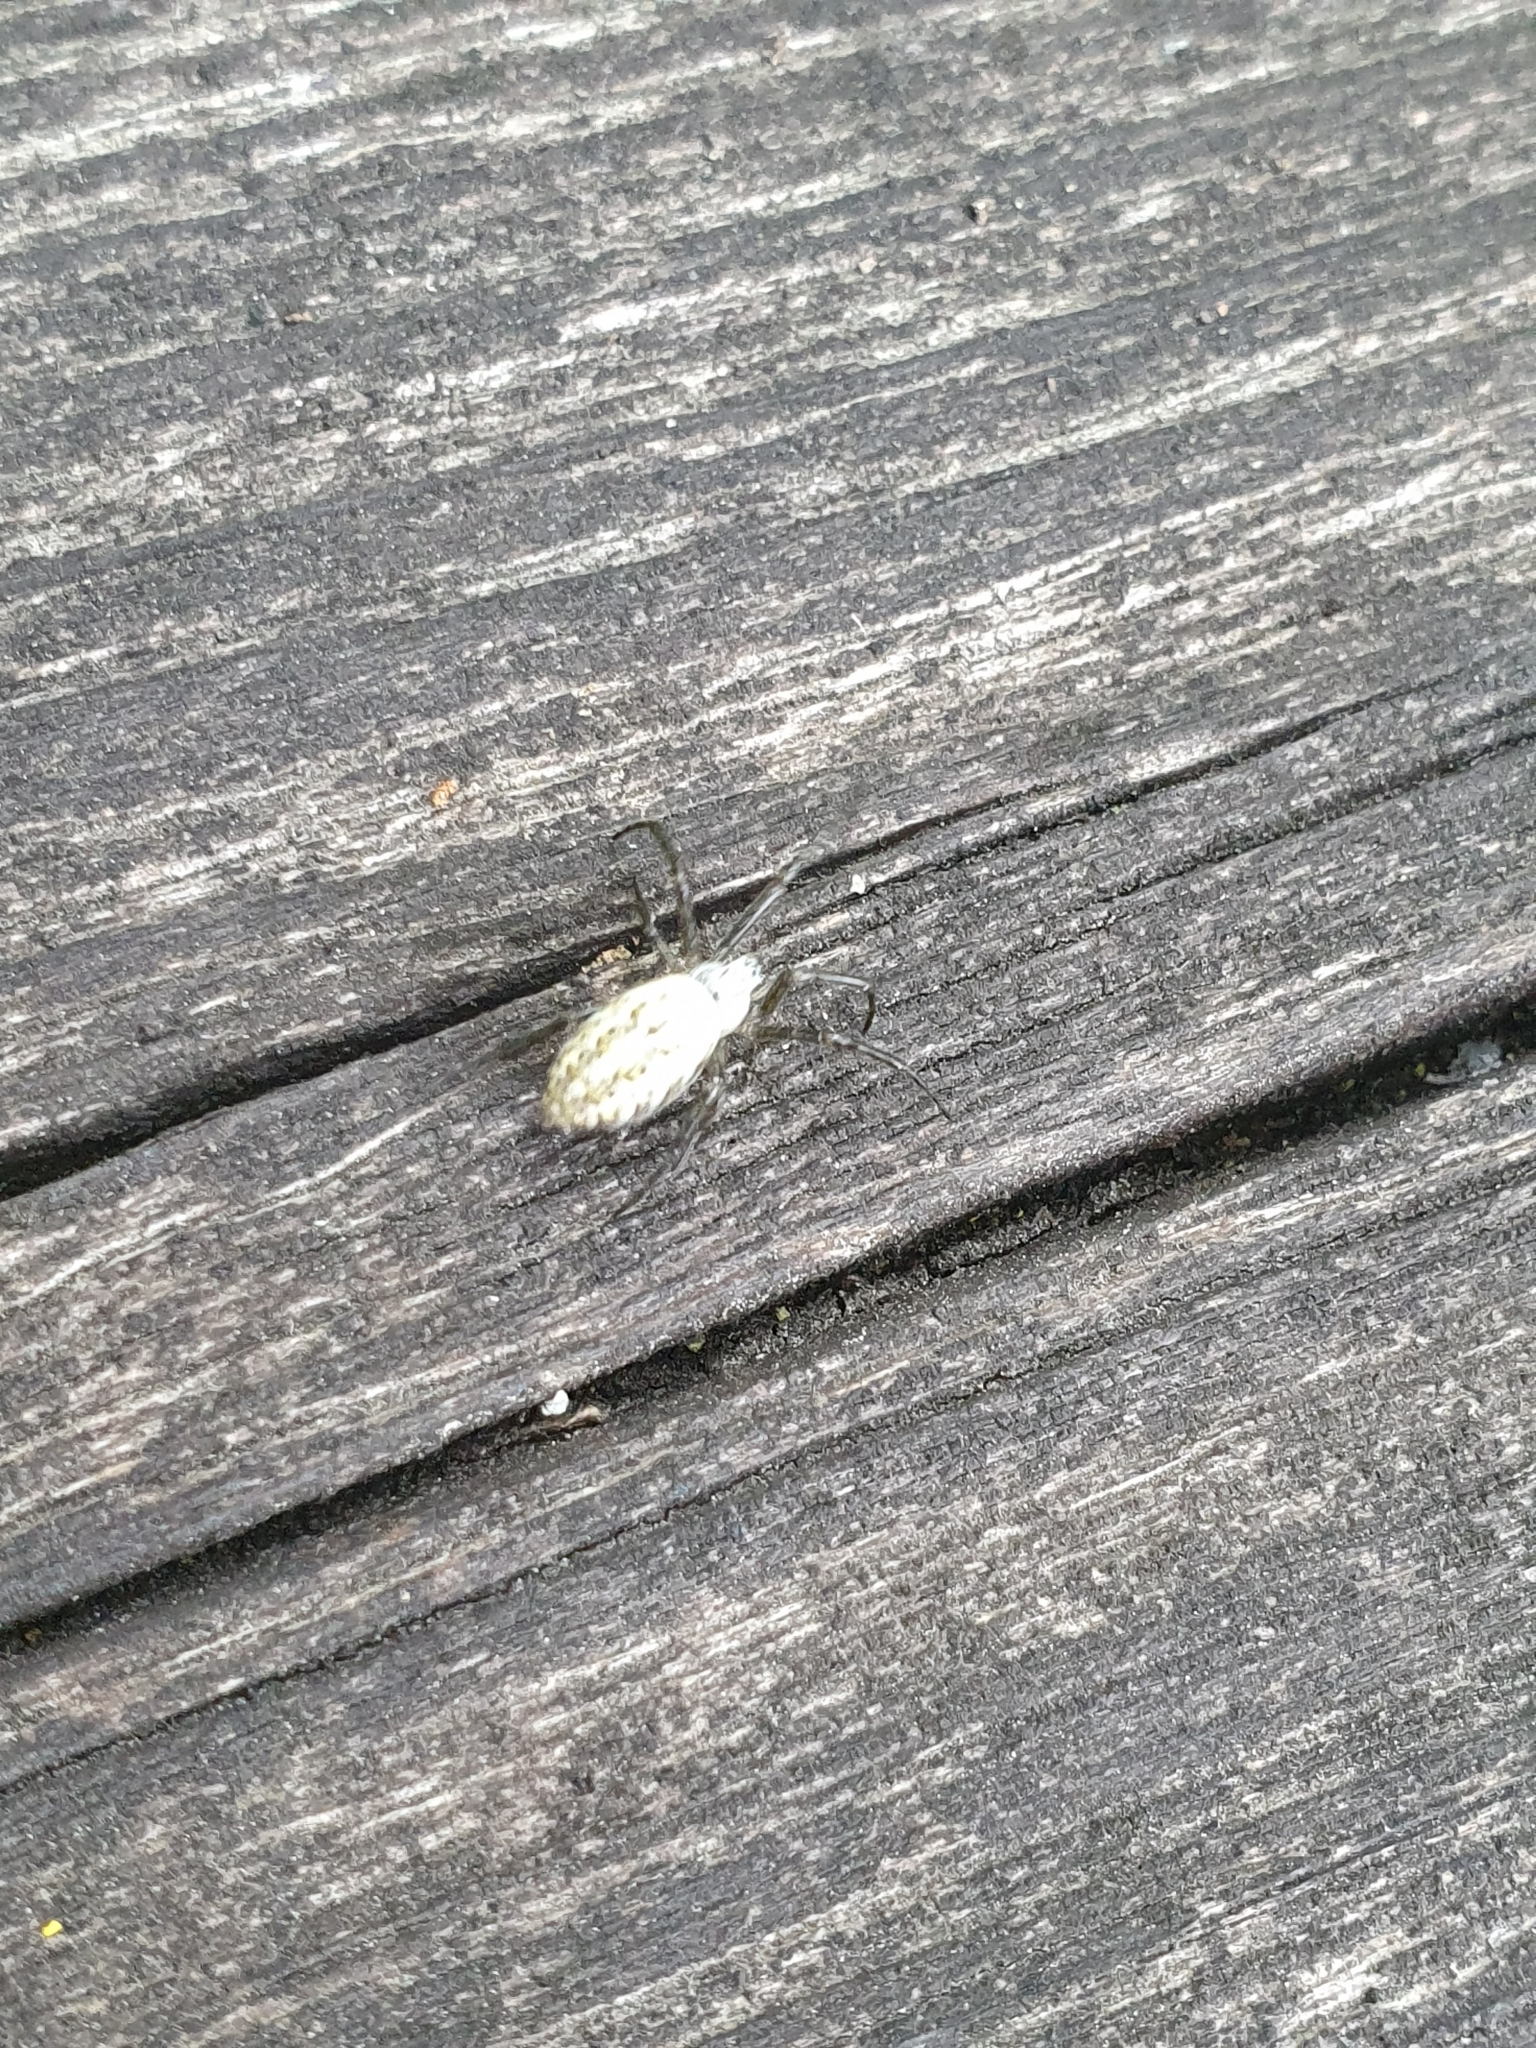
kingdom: Animalia
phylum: Arthropoda
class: Arachnida
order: Araneae
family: Araneidae
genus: Argiope
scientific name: Argiope bruennichi
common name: Wasp spider
